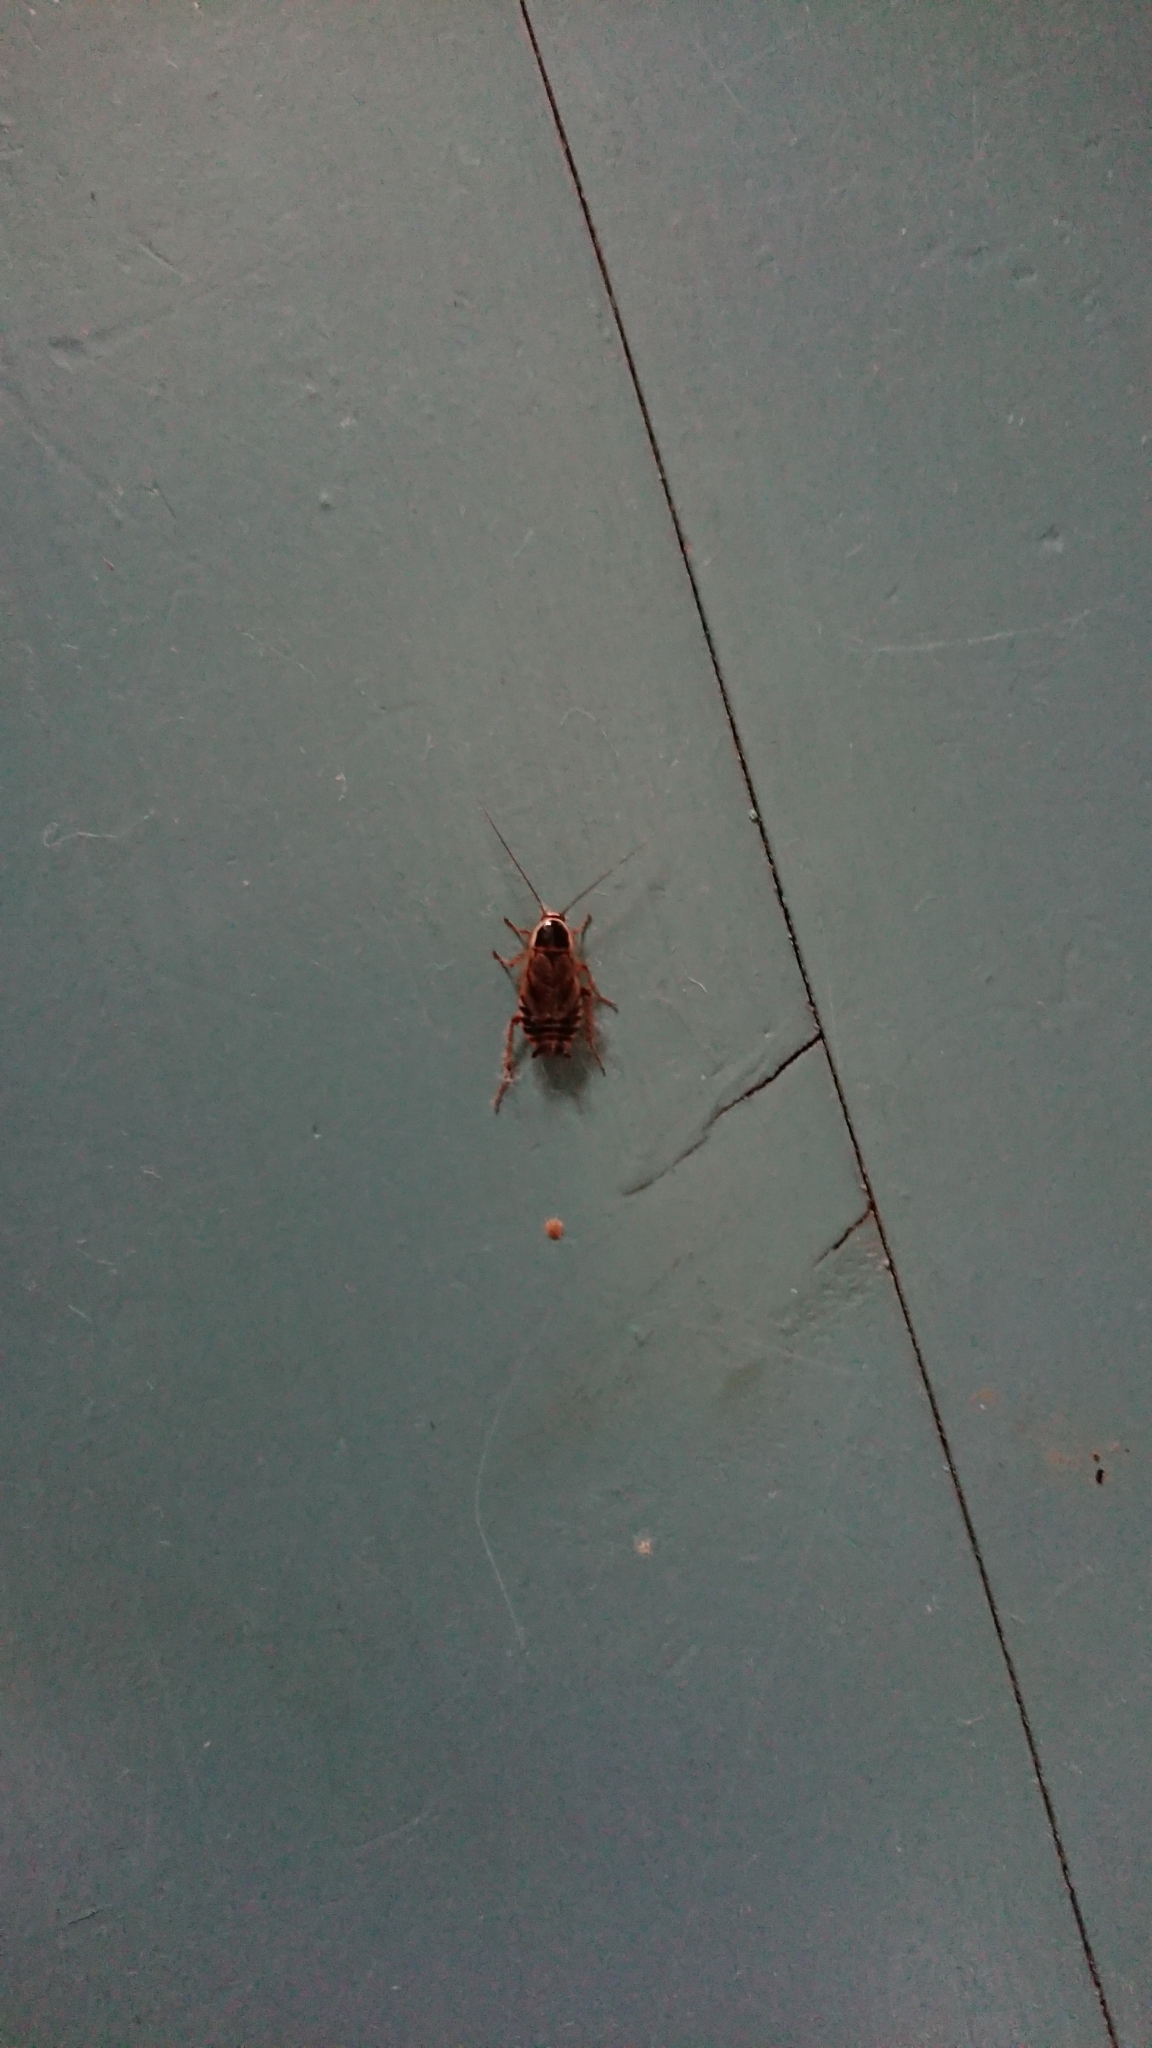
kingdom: Animalia
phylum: Arthropoda
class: Insecta
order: Blattodea
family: Ectobiidae
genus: Ectobius
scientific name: Ectobius sylvestris
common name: Forest cockroach
